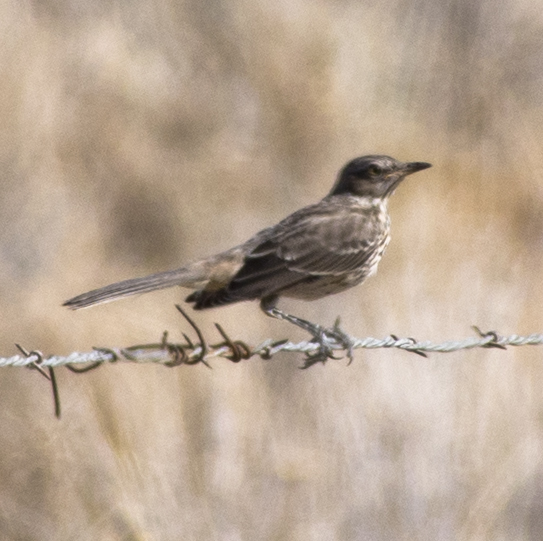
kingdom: Animalia
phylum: Chordata
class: Aves
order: Passeriformes
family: Mimidae
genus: Oreoscoptes
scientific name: Oreoscoptes montanus
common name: Sage thrasher
